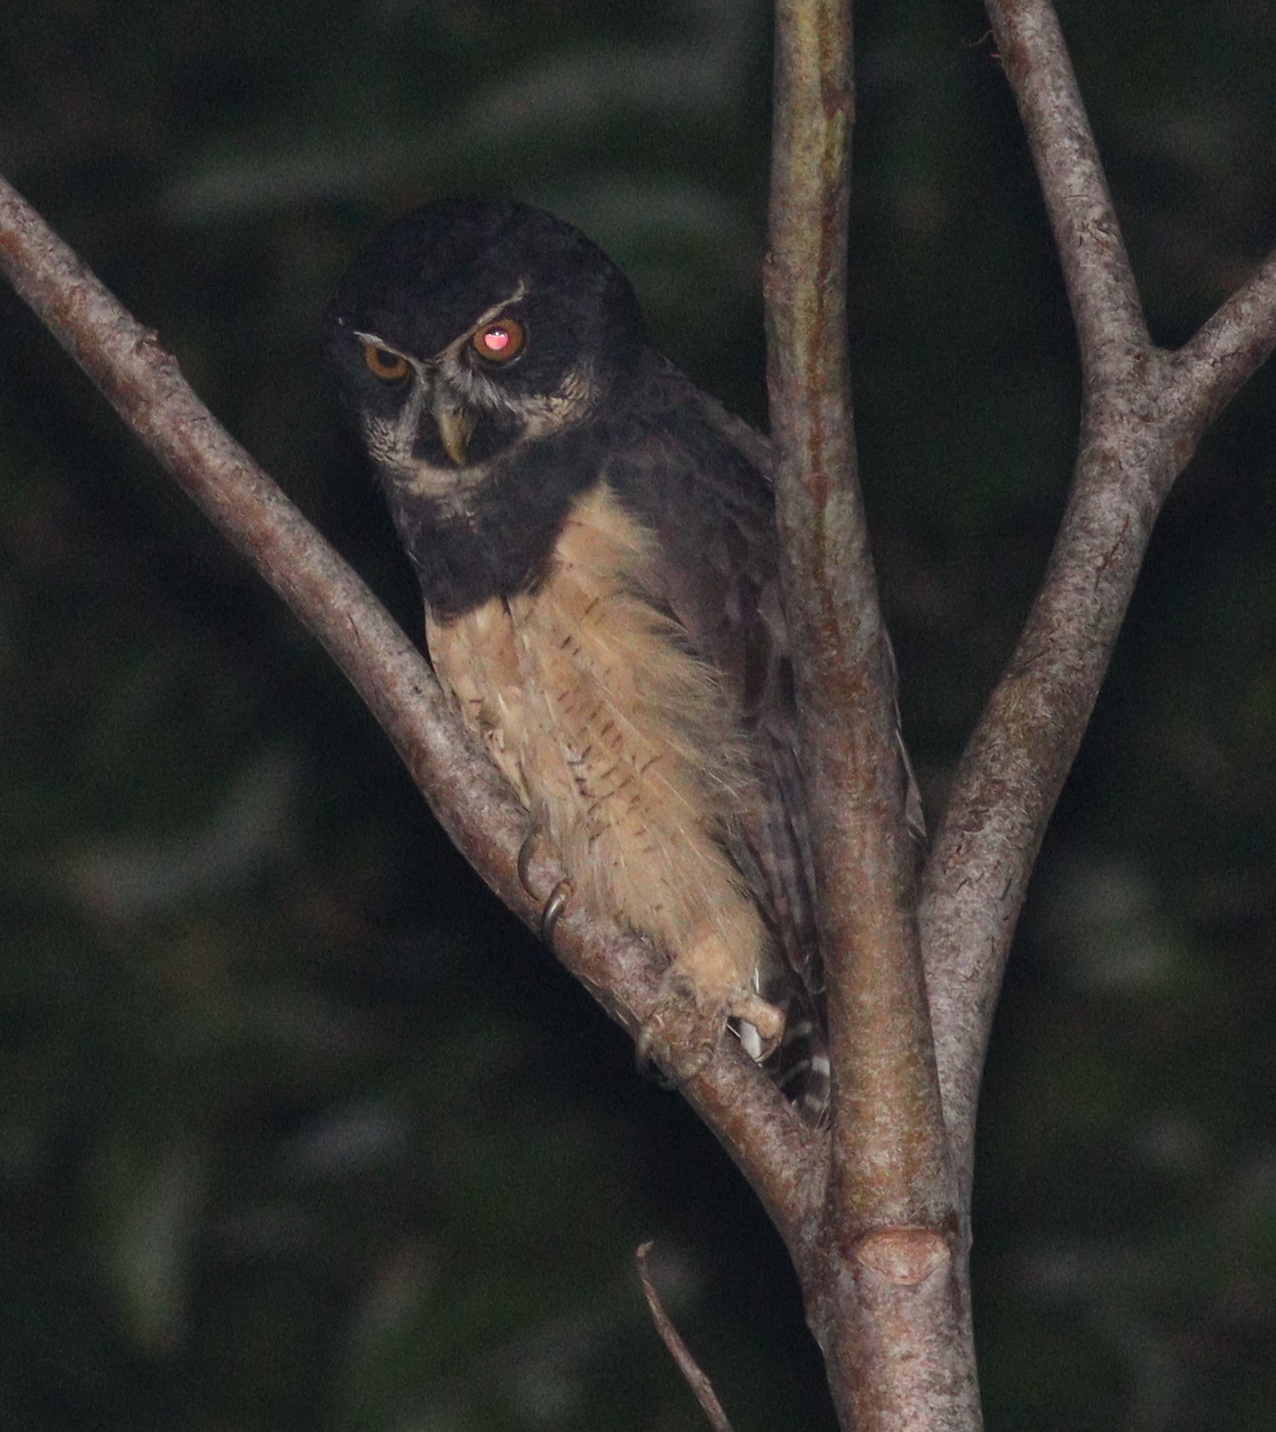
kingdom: Animalia
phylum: Chordata
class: Aves
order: Strigiformes
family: Strigidae
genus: Pulsatrix
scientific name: Pulsatrix perspicillata
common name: Spectacled owl
